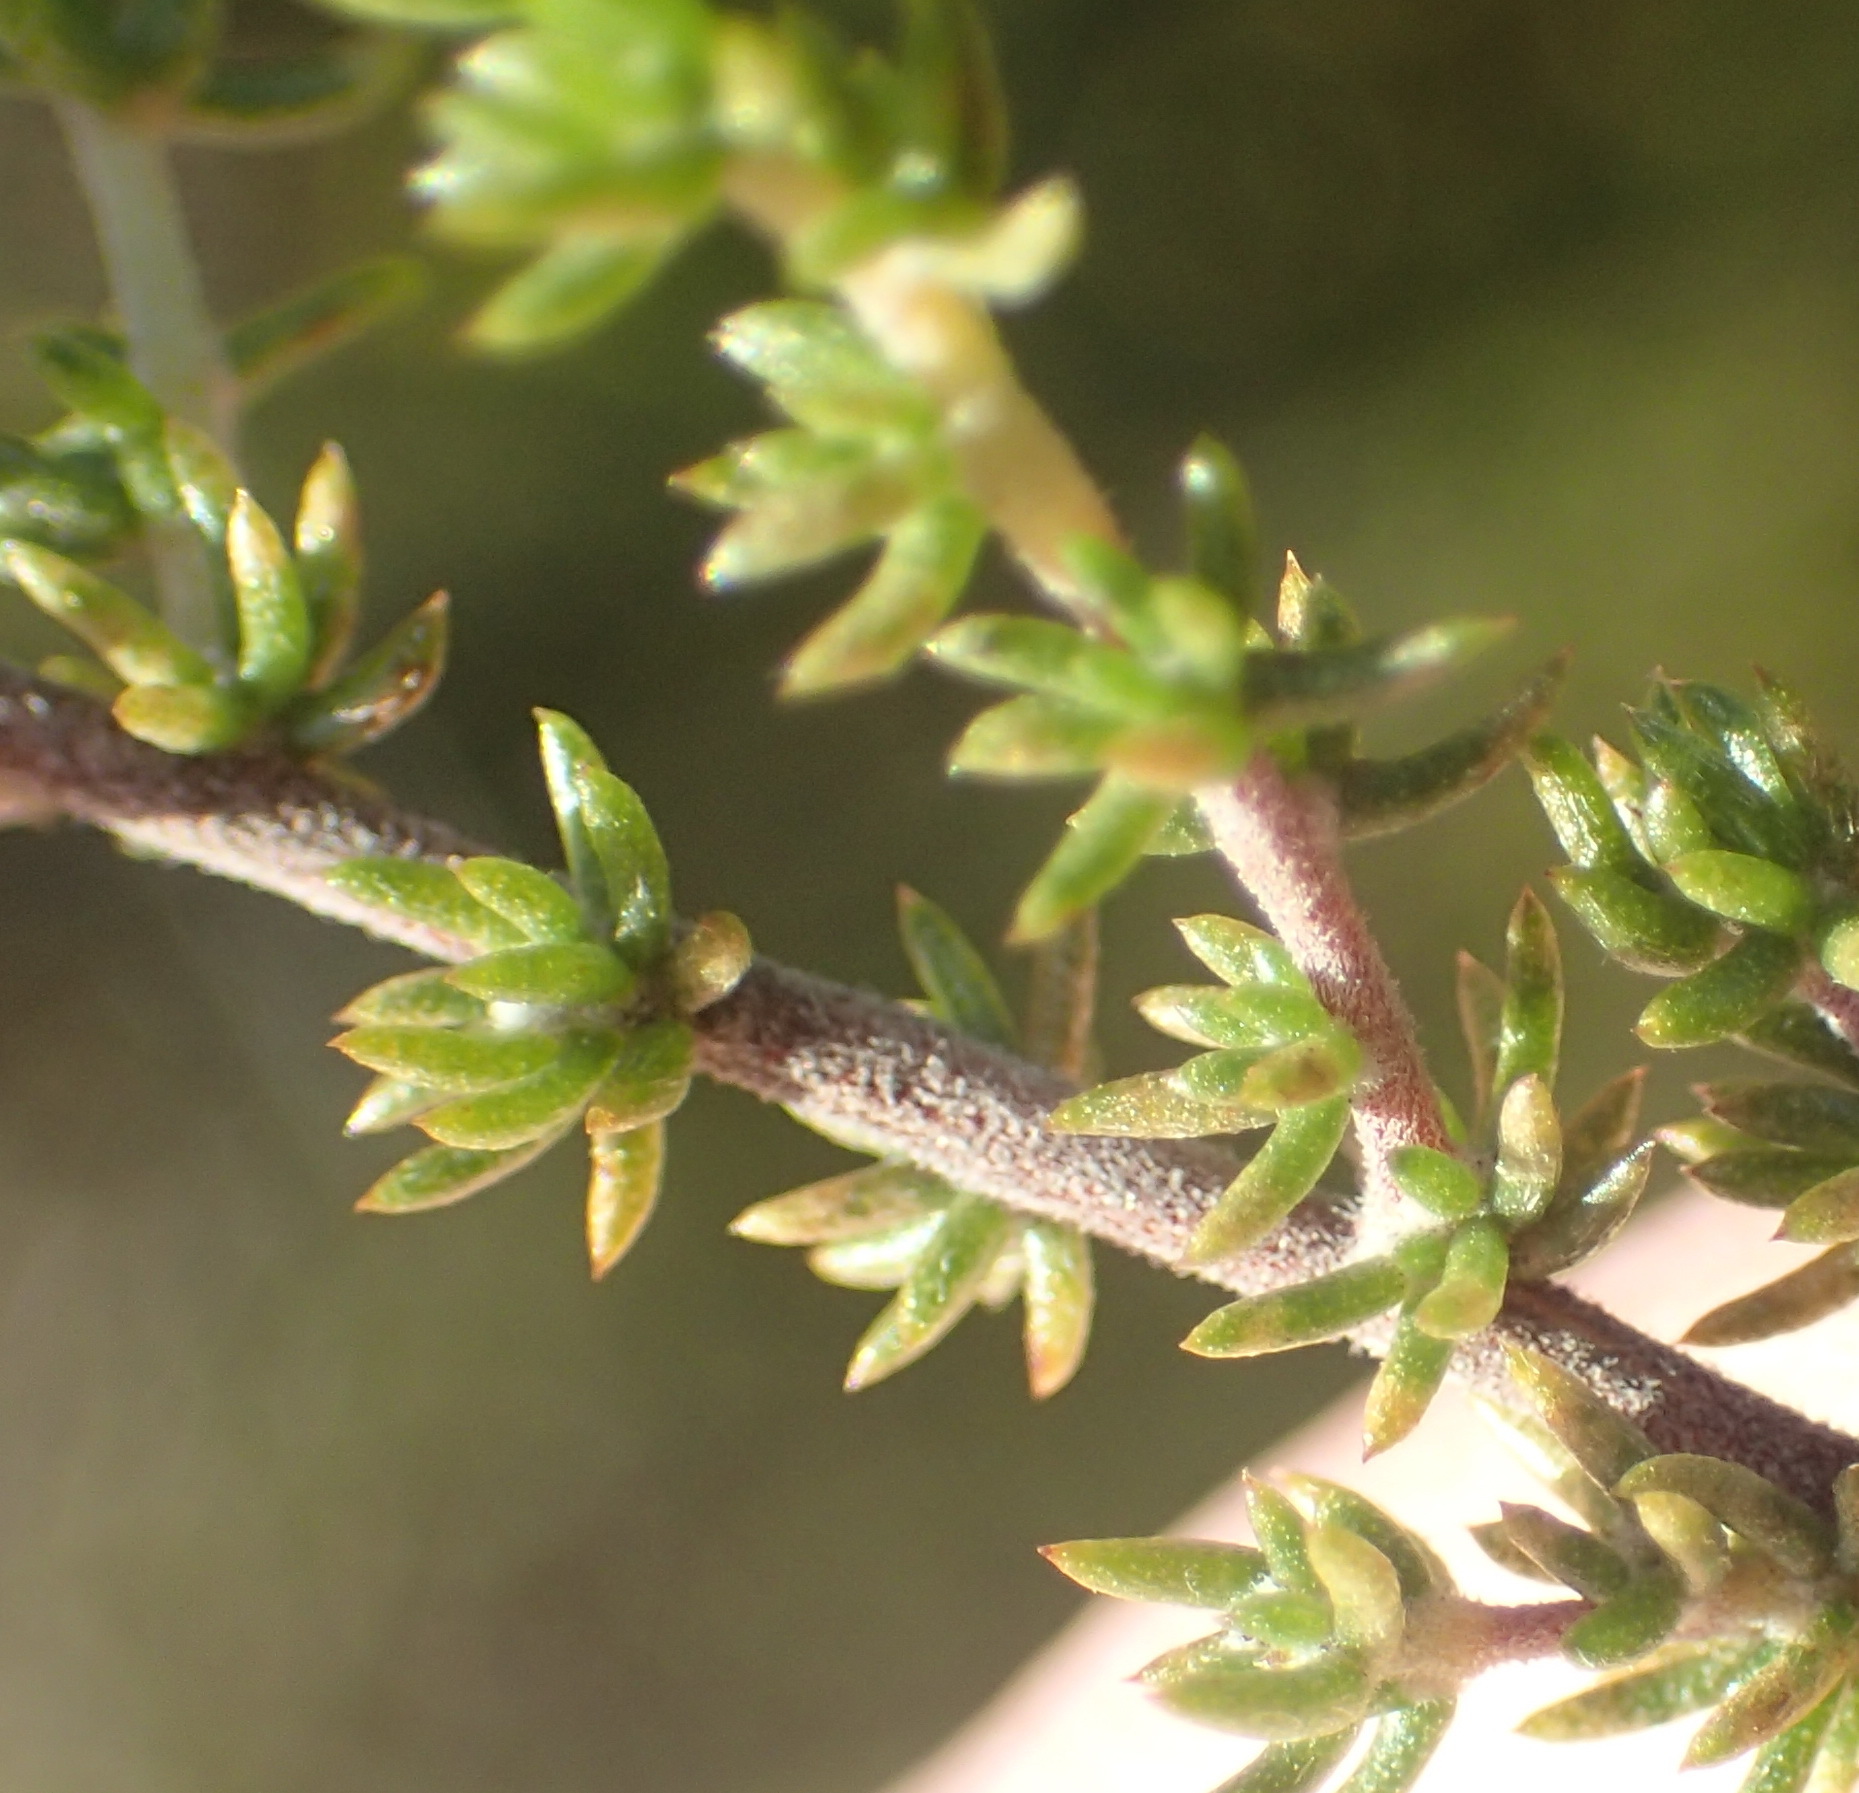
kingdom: Plantae
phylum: Tracheophyta
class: Magnoliopsida
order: Fabales
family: Fabaceae
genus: Aspalathus
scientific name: Aspalathus rubens
